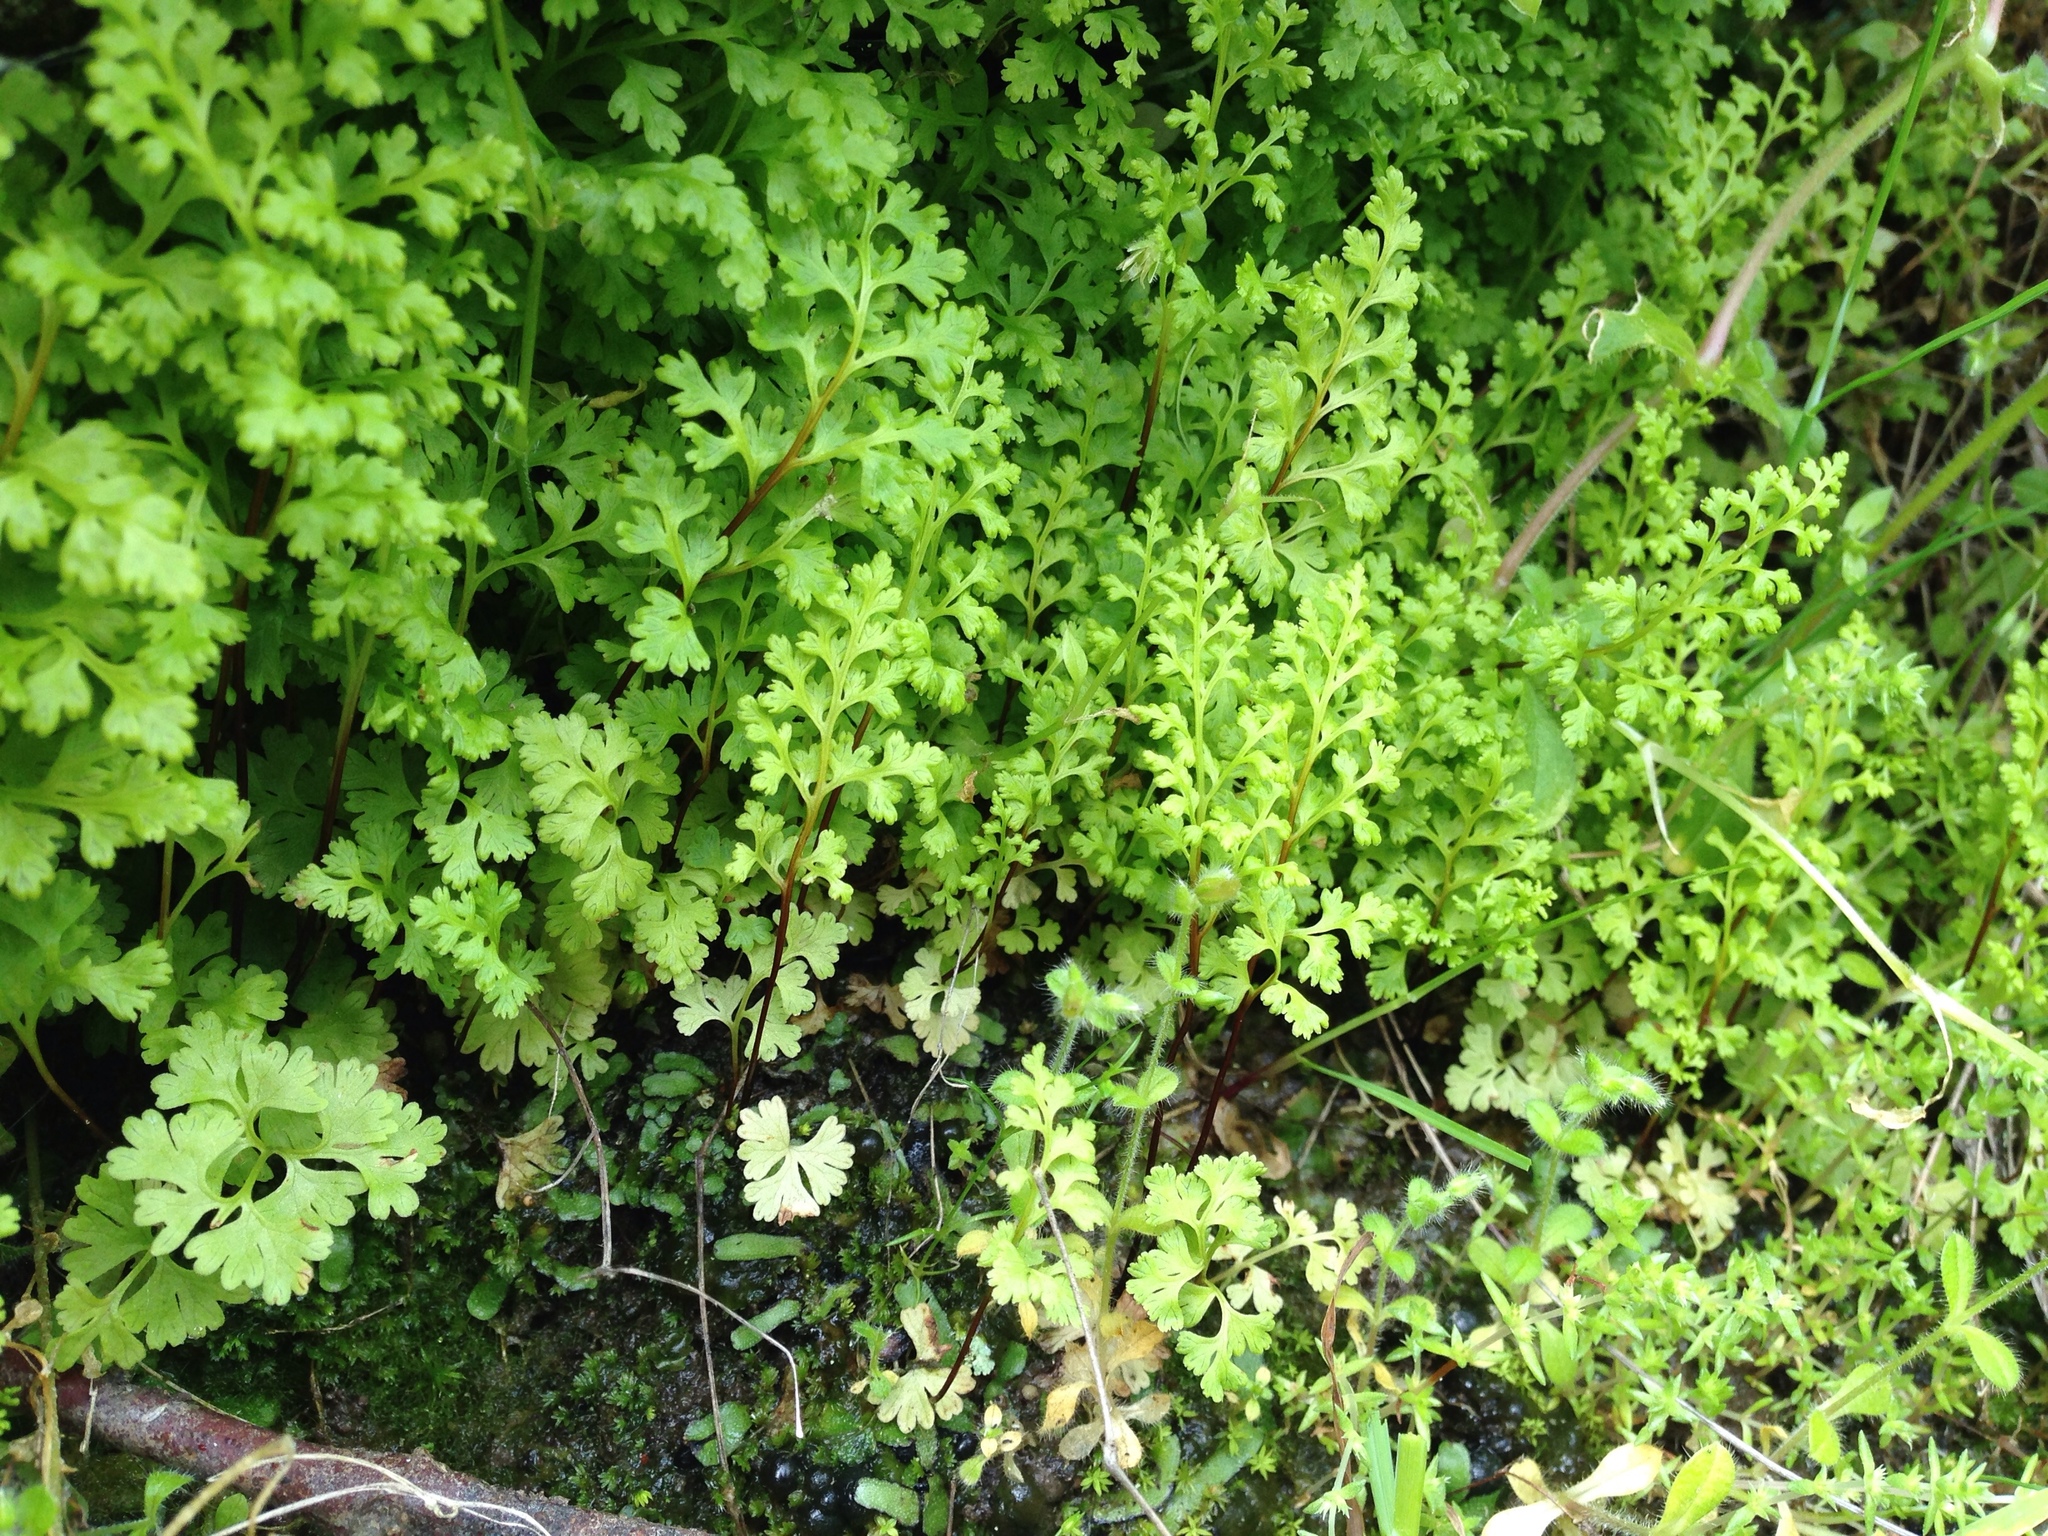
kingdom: Plantae
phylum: Tracheophyta
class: Polypodiopsida
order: Polypodiales
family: Pteridaceae
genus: Anogramma
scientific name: Anogramma leptophylla
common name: Jersey fern
